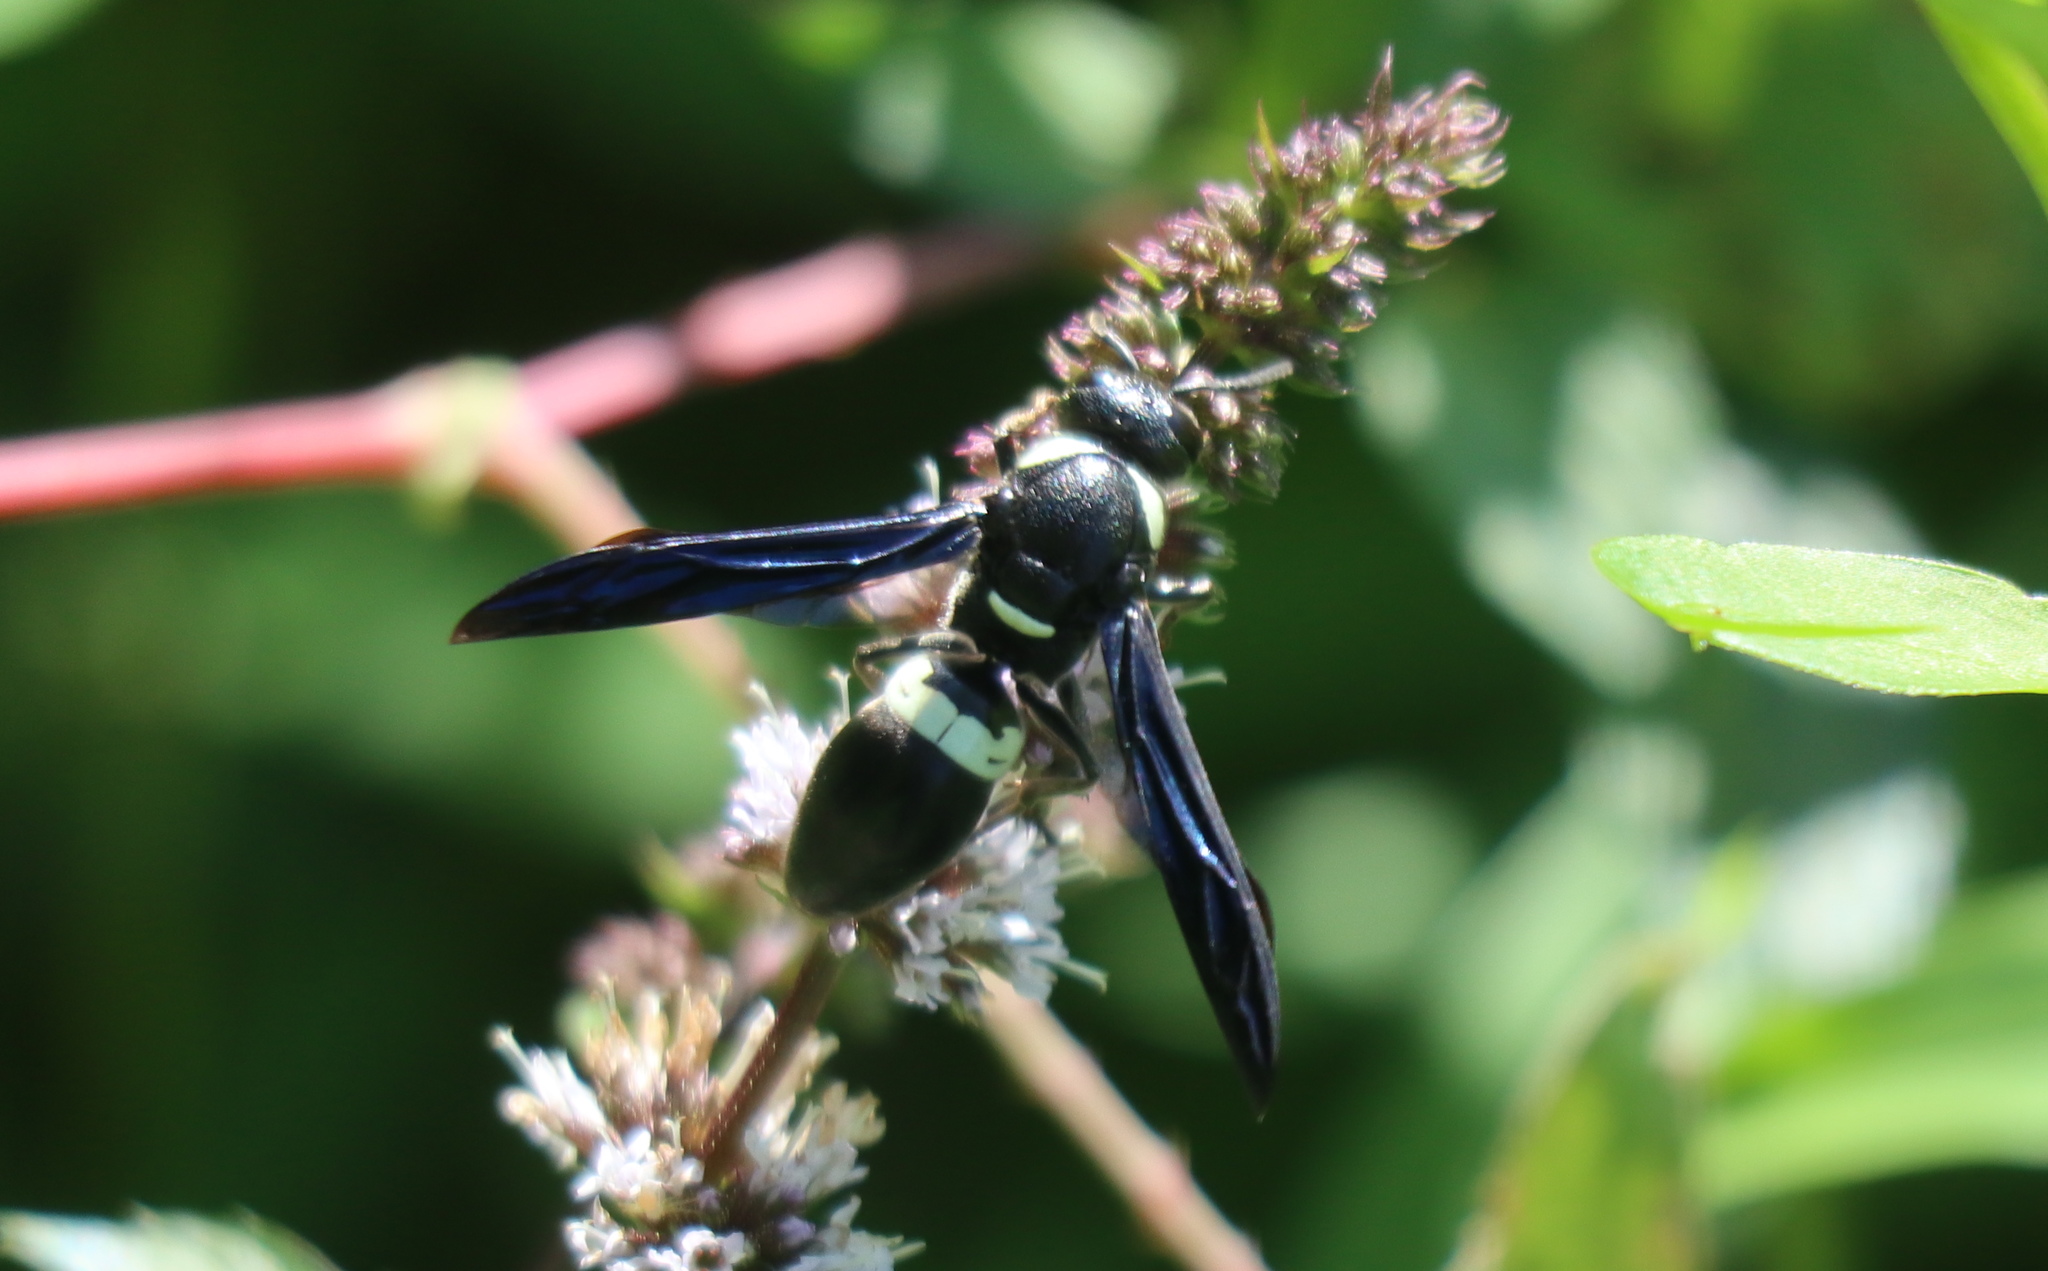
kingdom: Animalia
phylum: Arthropoda
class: Insecta
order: Hymenoptera
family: Eumenidae
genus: Monobia
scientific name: Monobia quadridens
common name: Four-toothed mason wasp
